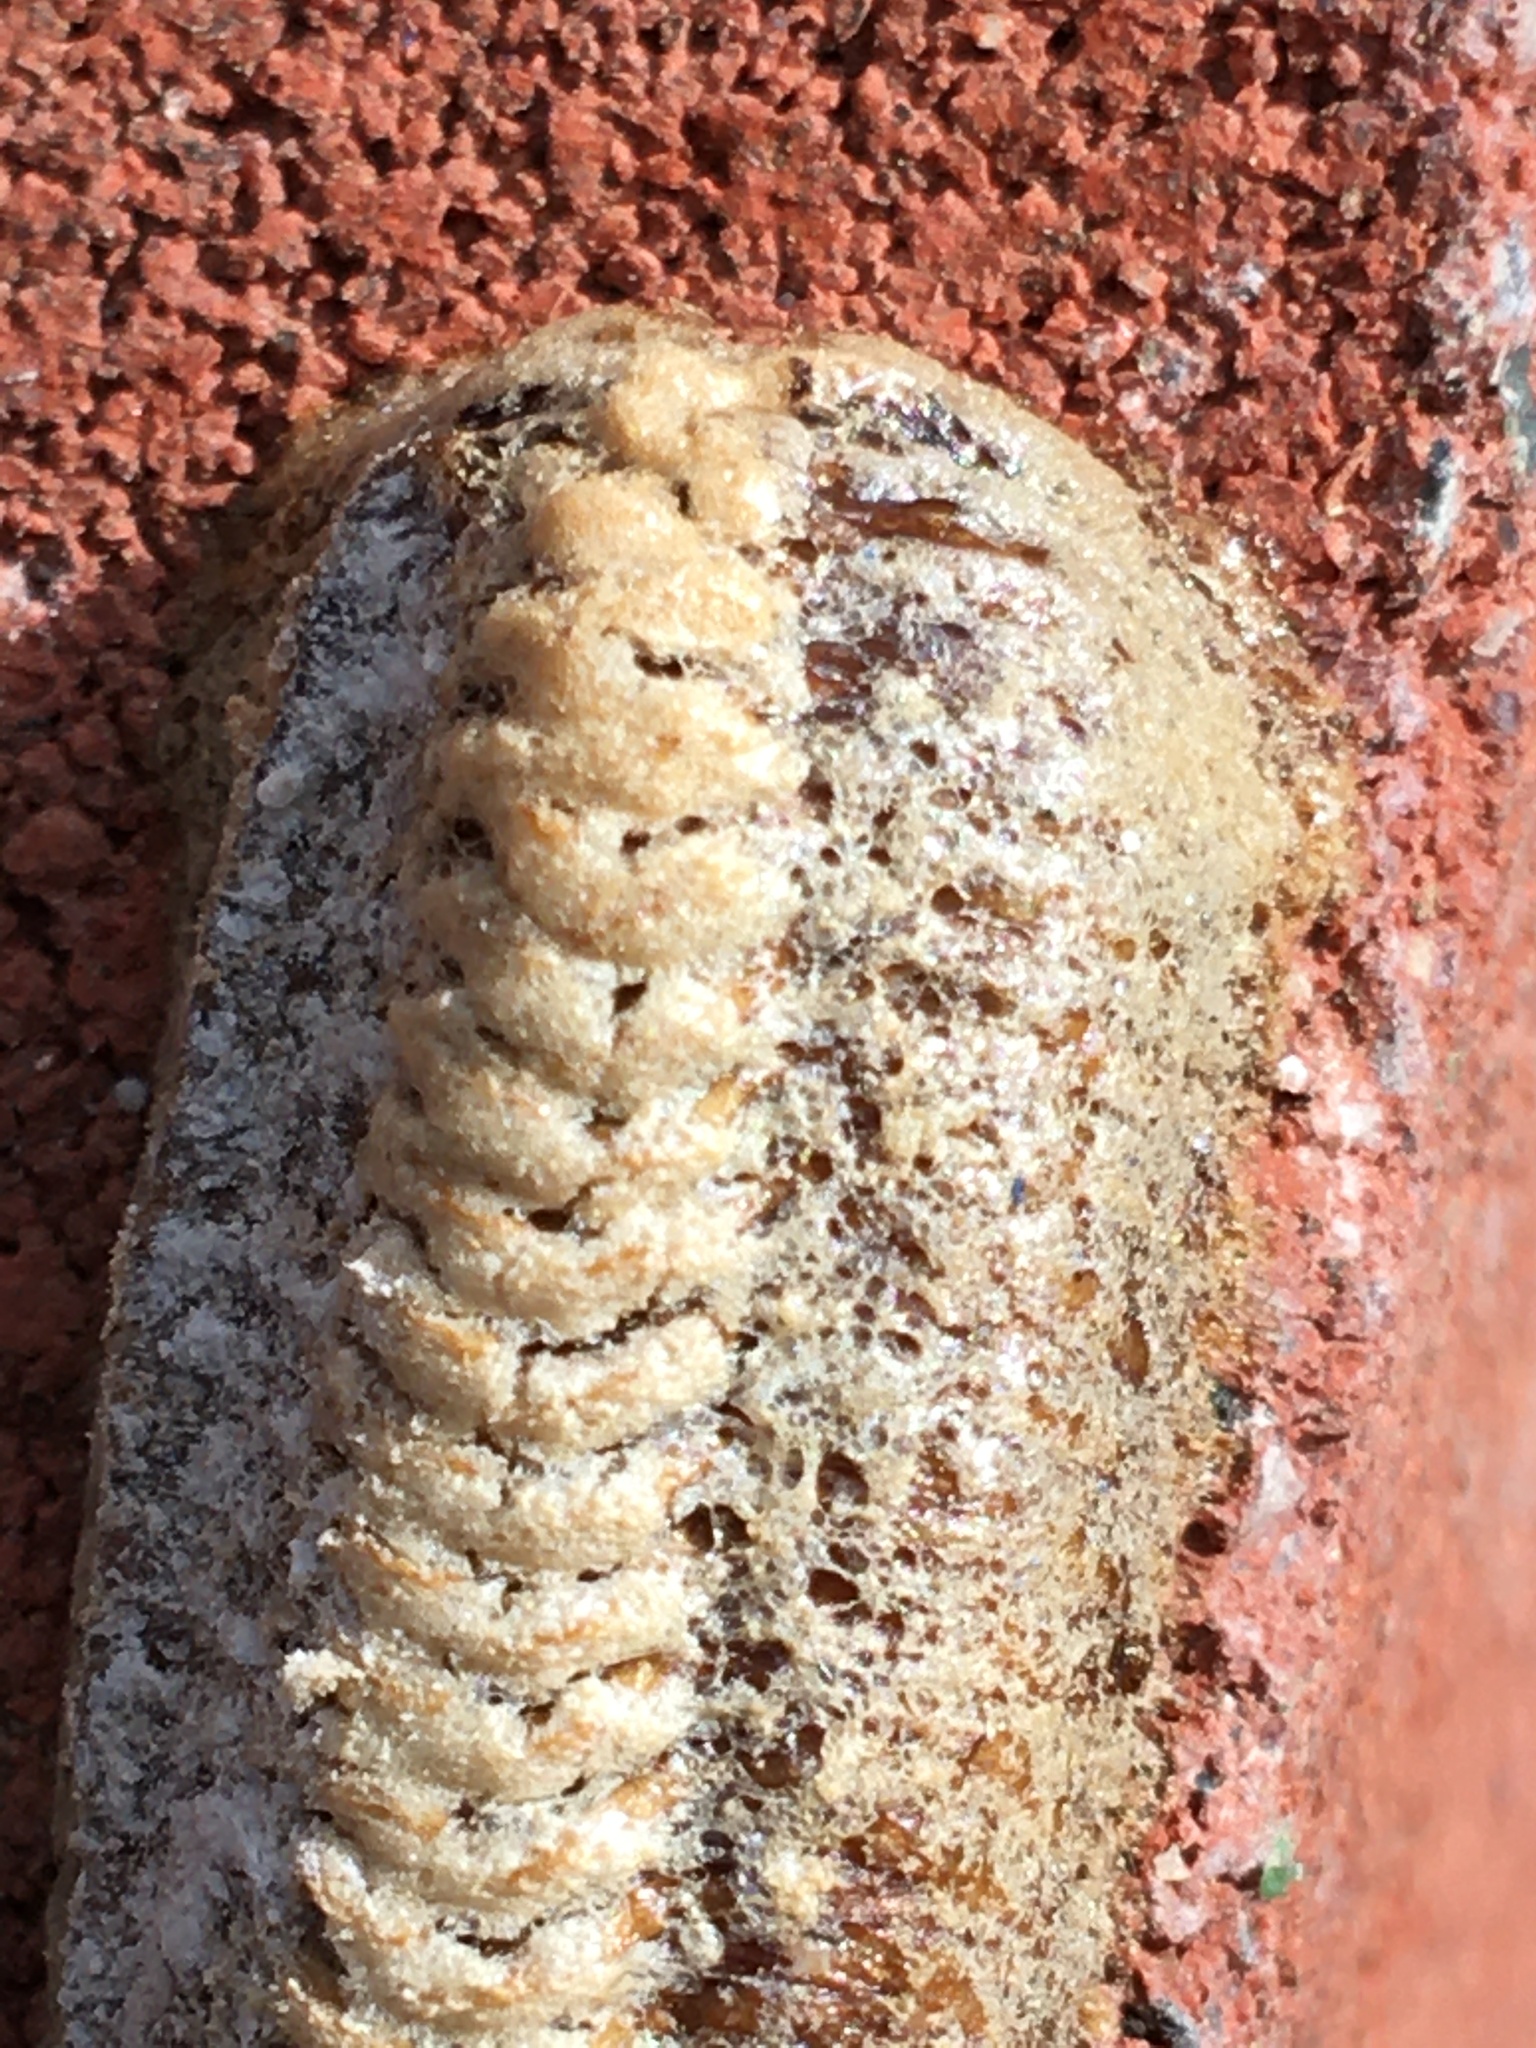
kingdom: Animalia
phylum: Arthropoda
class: Insecta
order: Mantodea
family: Mantidae
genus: Stagmomantis
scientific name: Stagmomantis carolina
